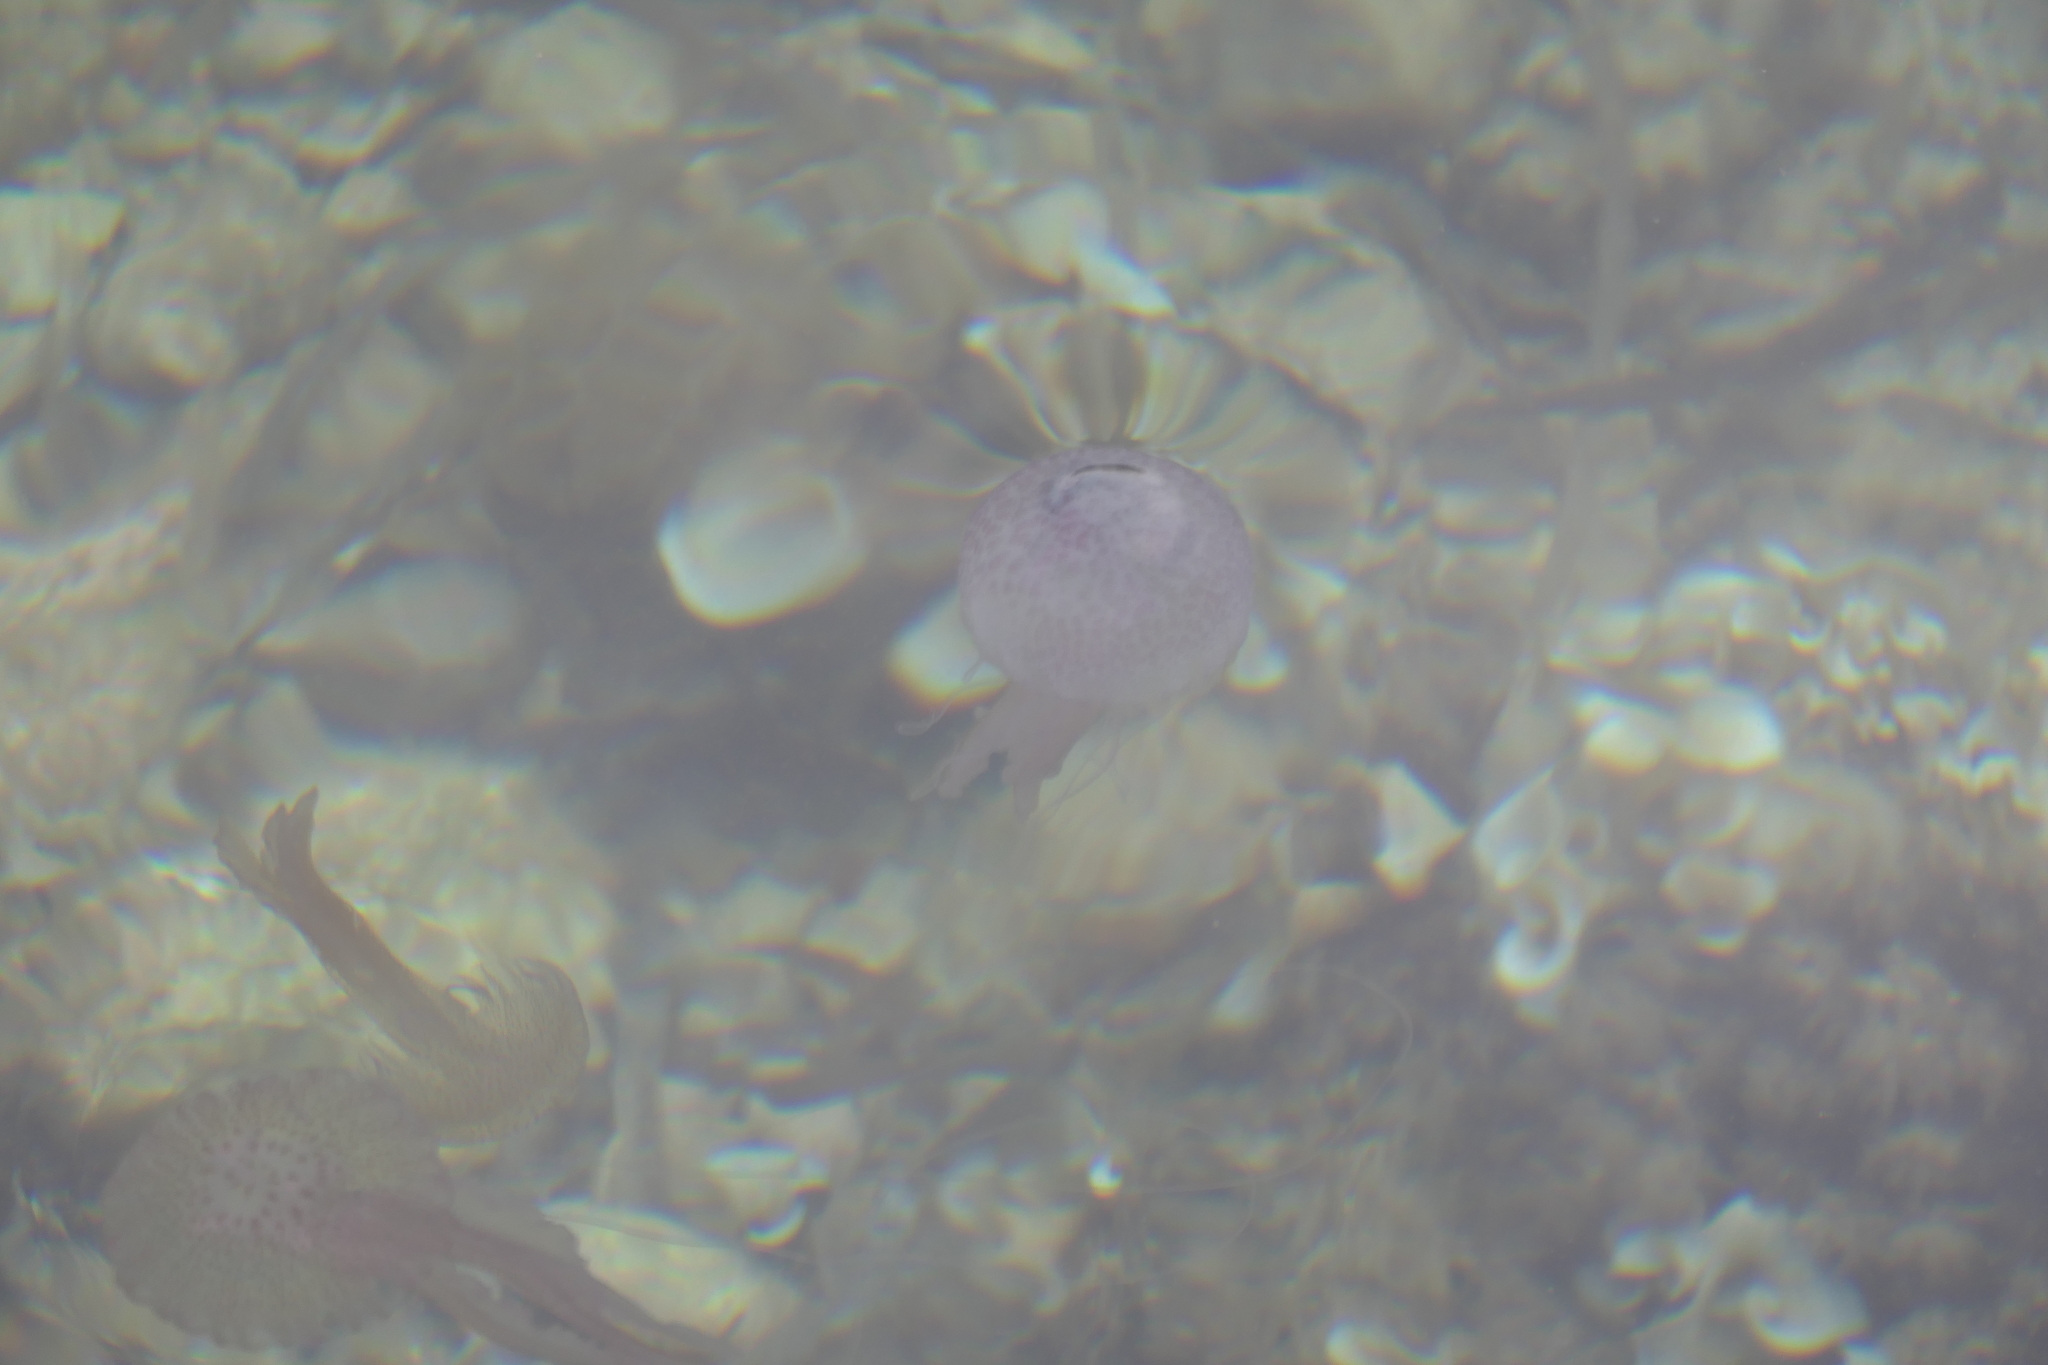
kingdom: Animalia
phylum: Cnidaria
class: Scyphozoa
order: Semaeostomeae
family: Pelagiidae
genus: Pelagia
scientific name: Pelagia noctiluca
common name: Mauve stinger
